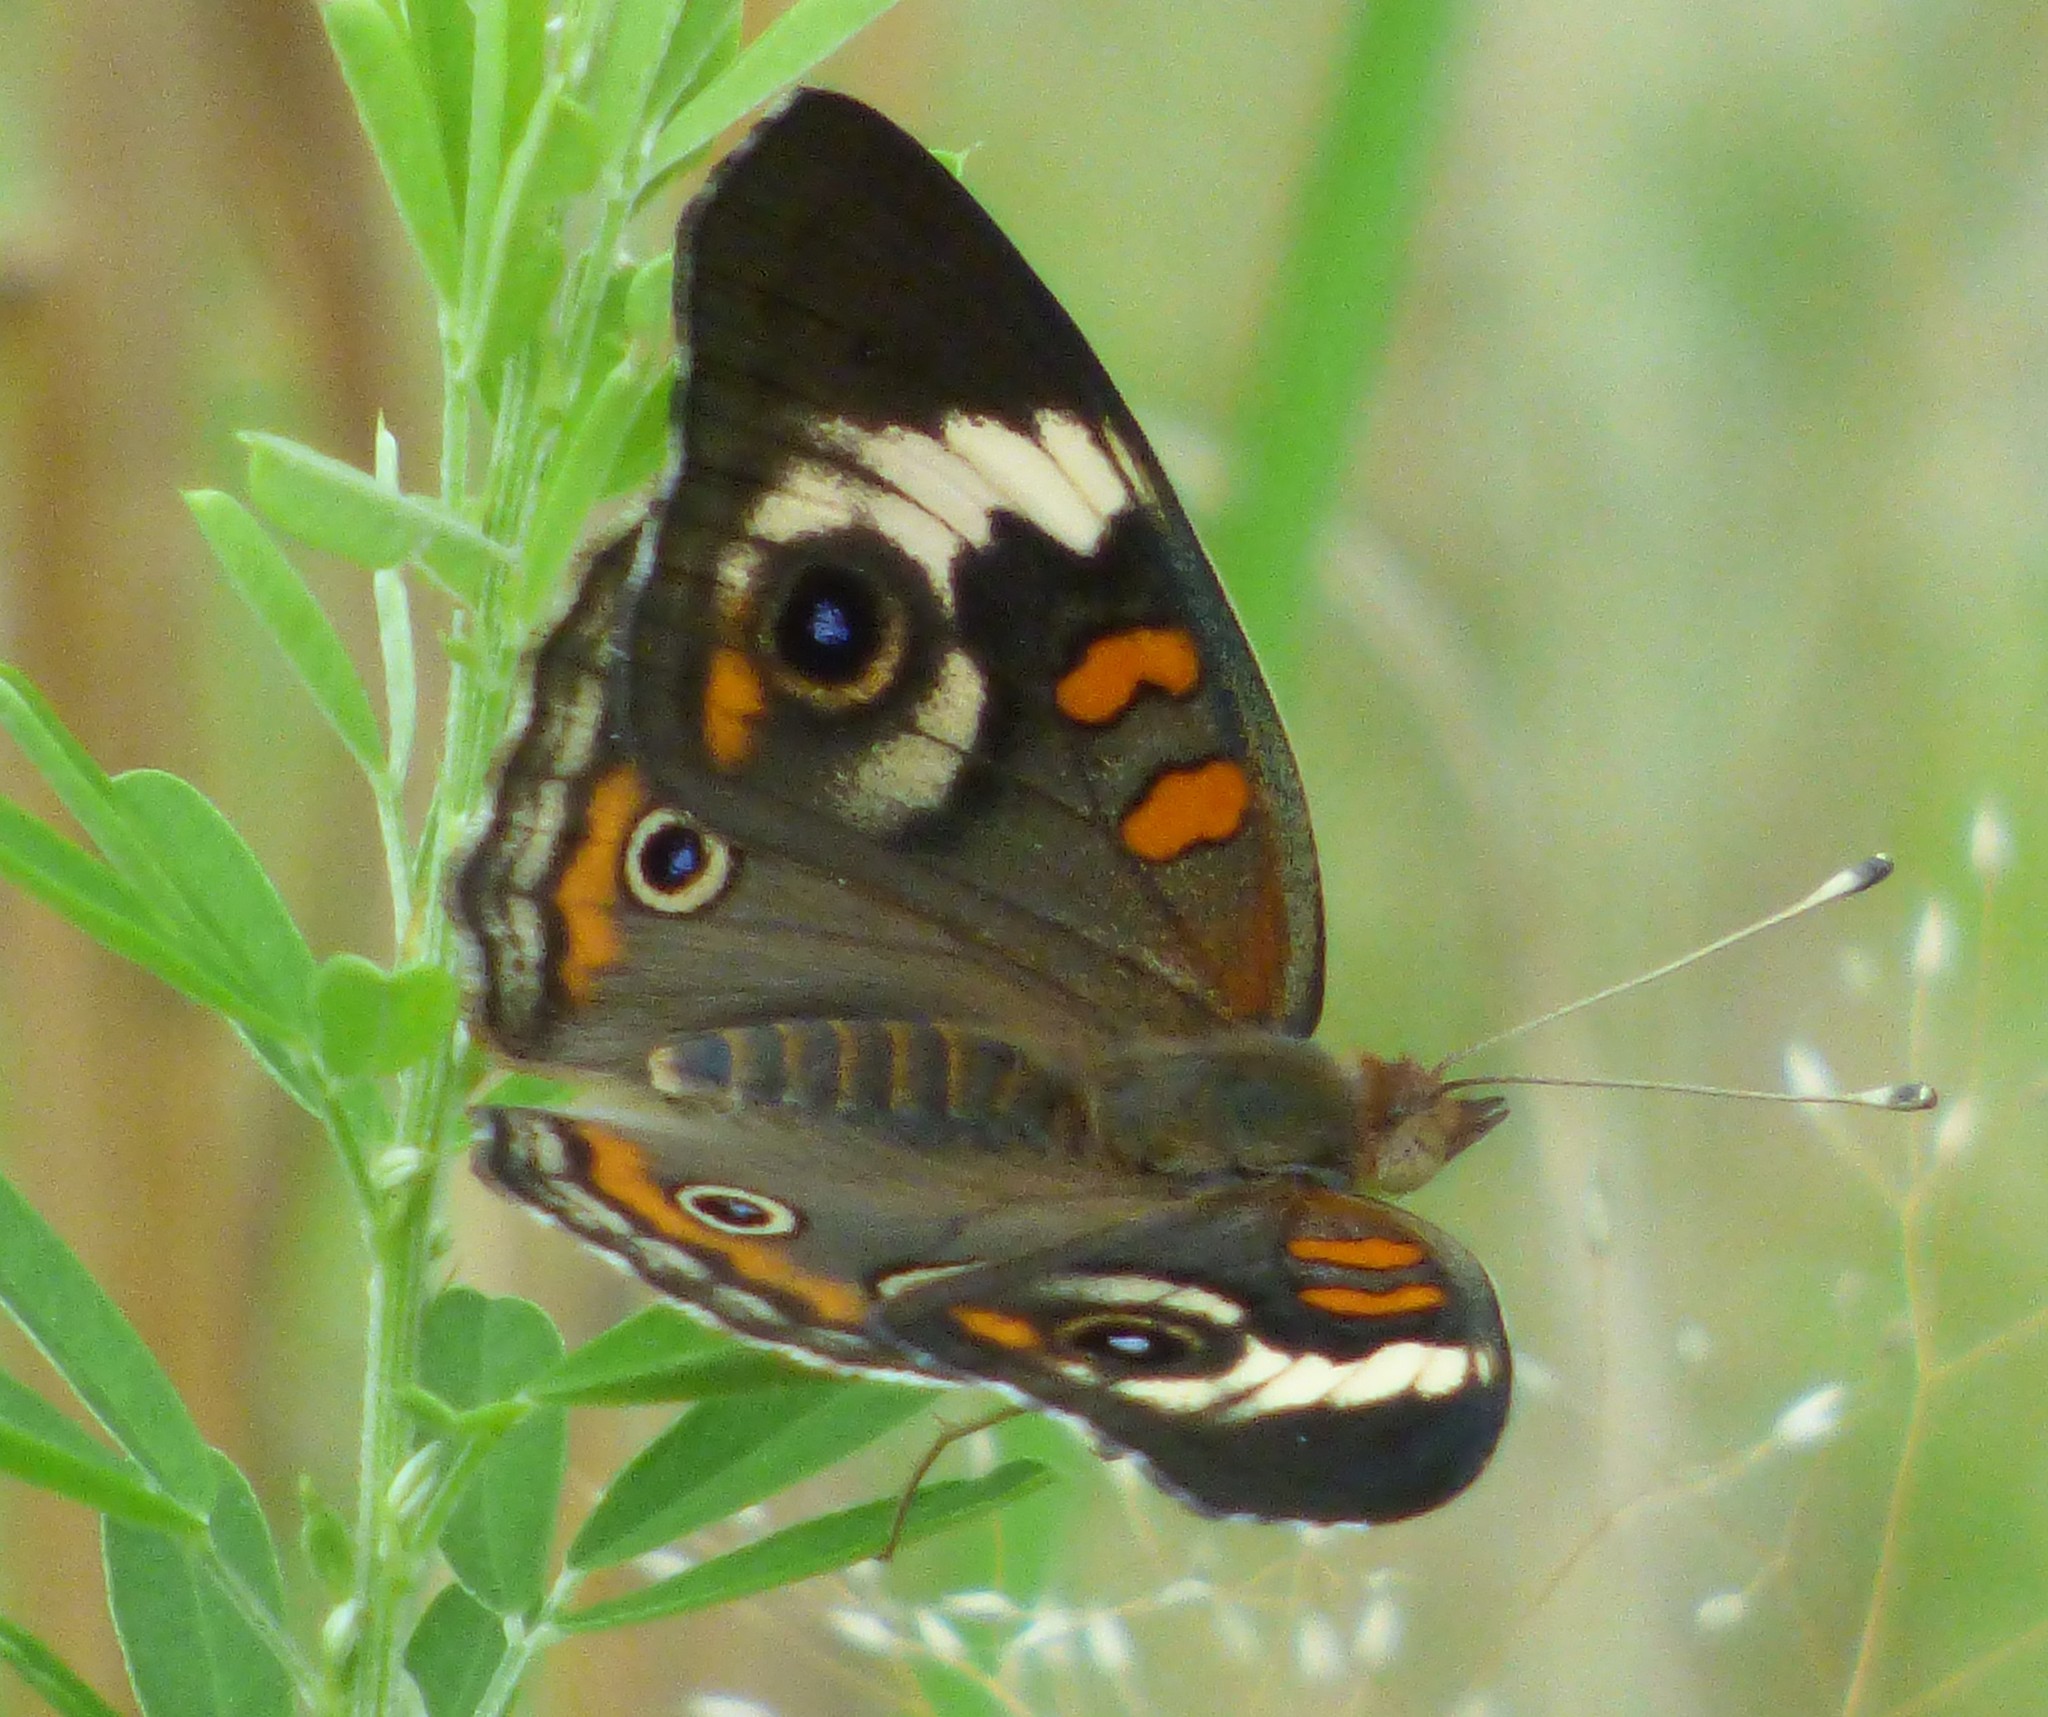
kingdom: Animalia
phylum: Arthropoda
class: Insecta
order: Lepidoptera
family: Nymphalidae
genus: Junonia
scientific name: Junonia coenia
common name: Common buckeye
